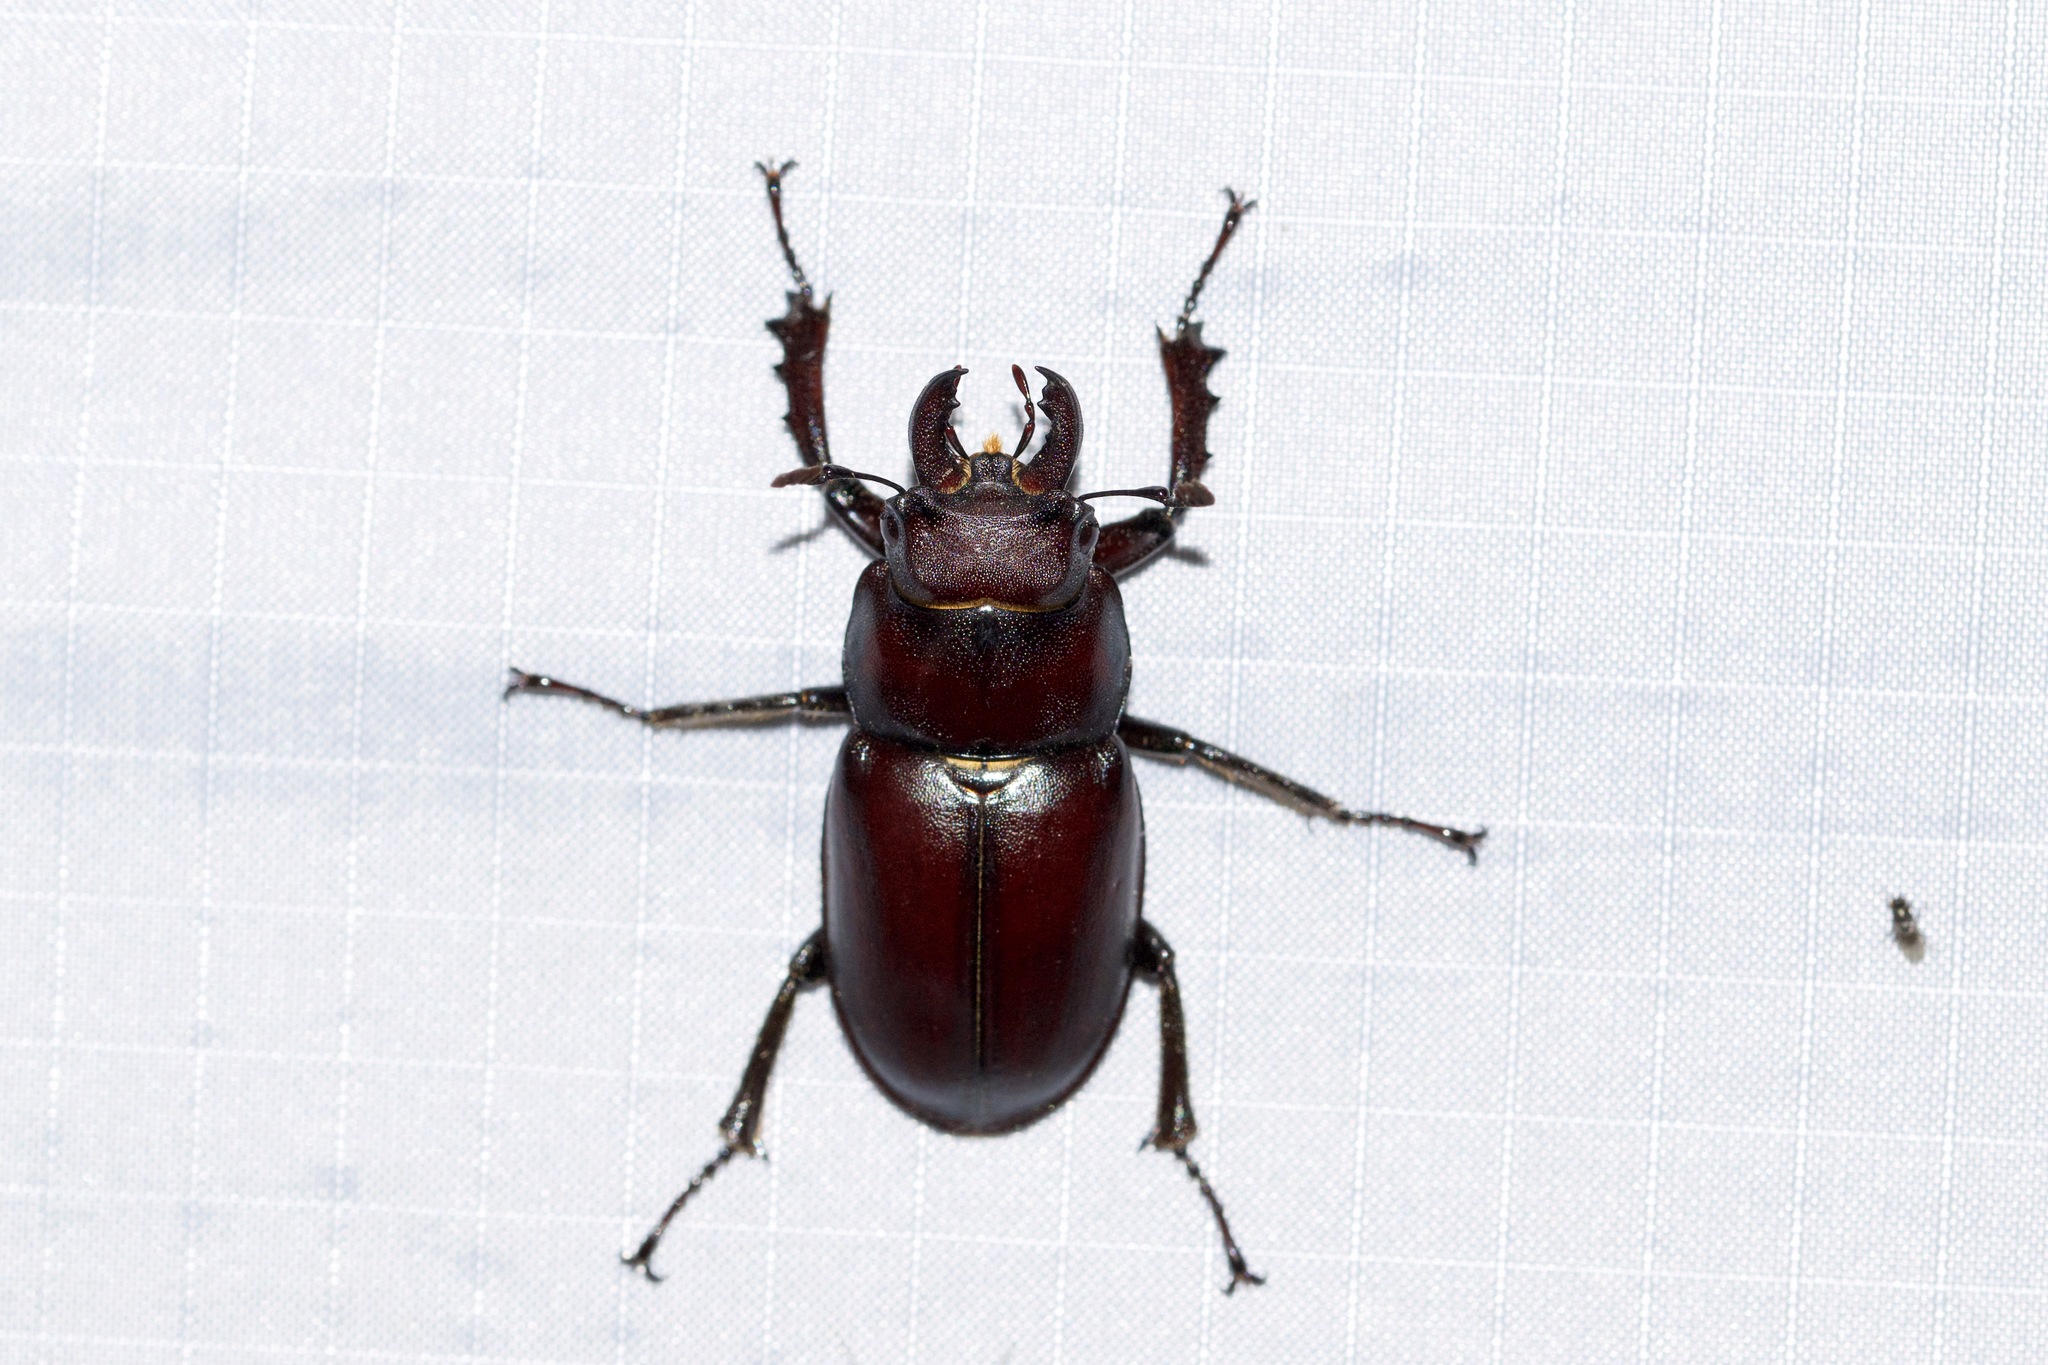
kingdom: Animalia
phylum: Arthropoda
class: Insecta
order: Coleoptera
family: Lucanidae
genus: Lucanus
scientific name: Lucanus placidus
